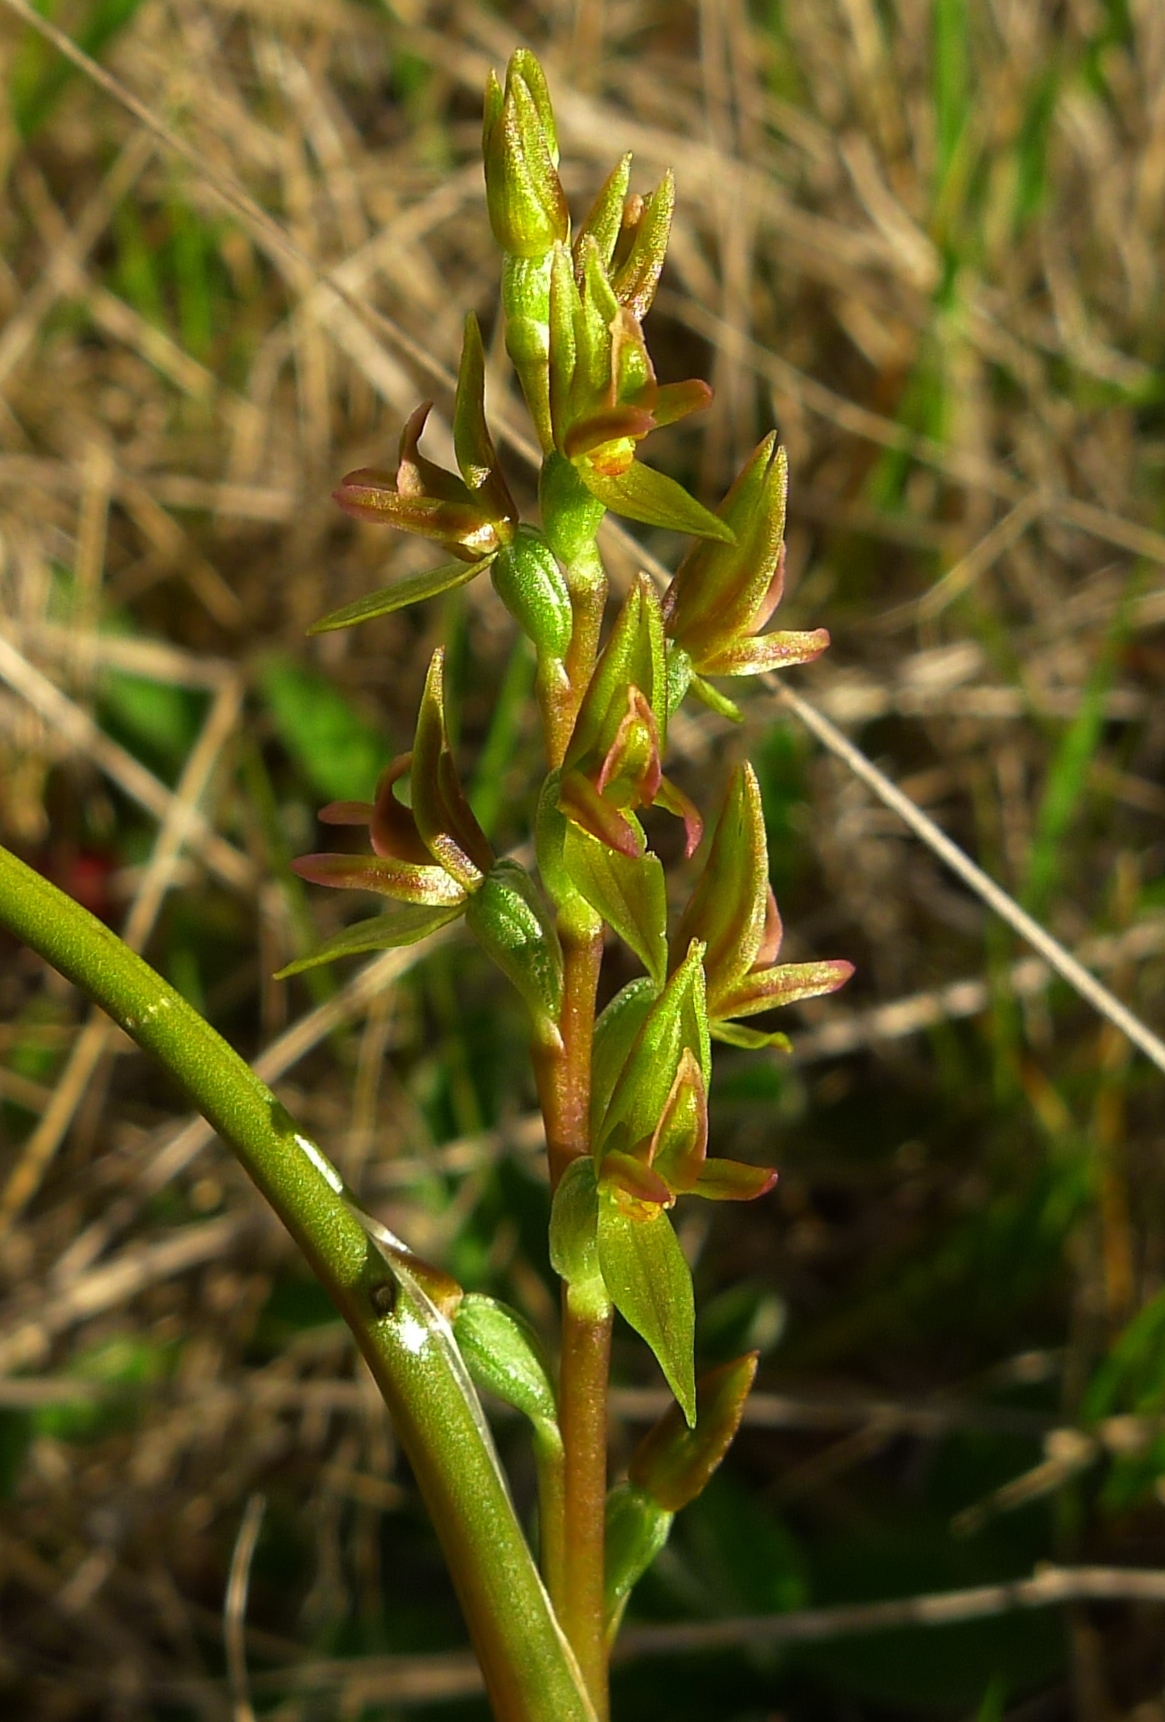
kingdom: Plantae
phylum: Tracheophyta
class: Liliopsida
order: Asparagales
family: Orchidaceae
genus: Prasophyllum
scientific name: Prasophyllum colensoi
